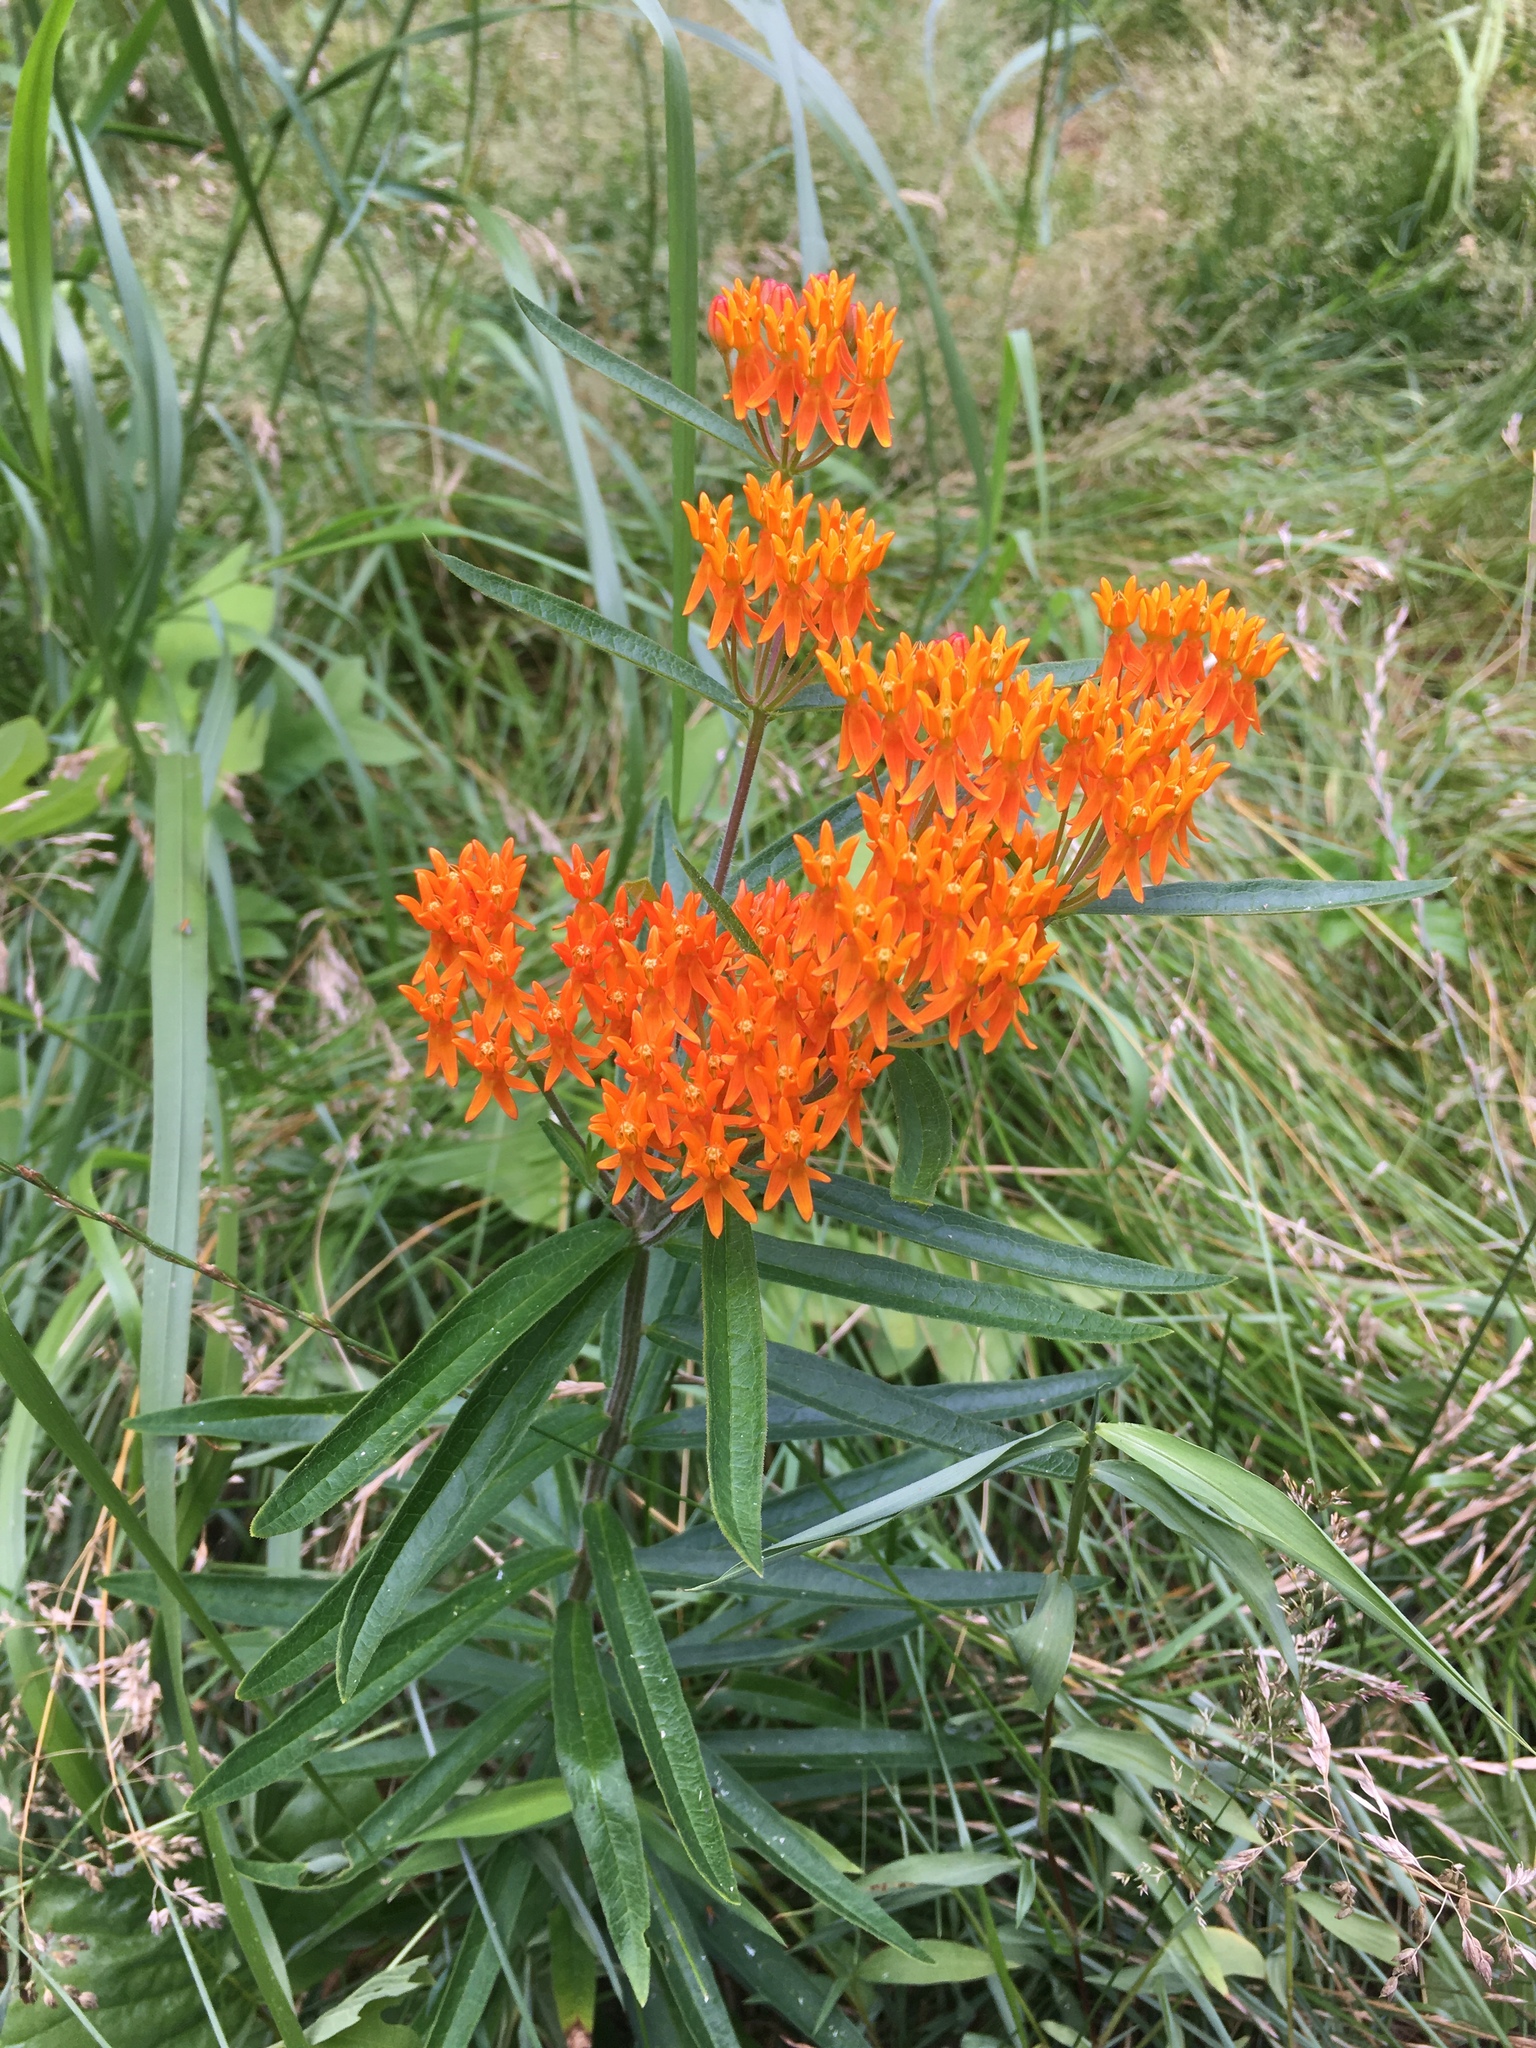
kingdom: Plantae
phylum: Tracheophyta
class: Magnoliopsida
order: Gentianales
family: Apocynaceae
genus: Asclepias
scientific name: Asclepias tuberosa
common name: Butterfly milkweed
